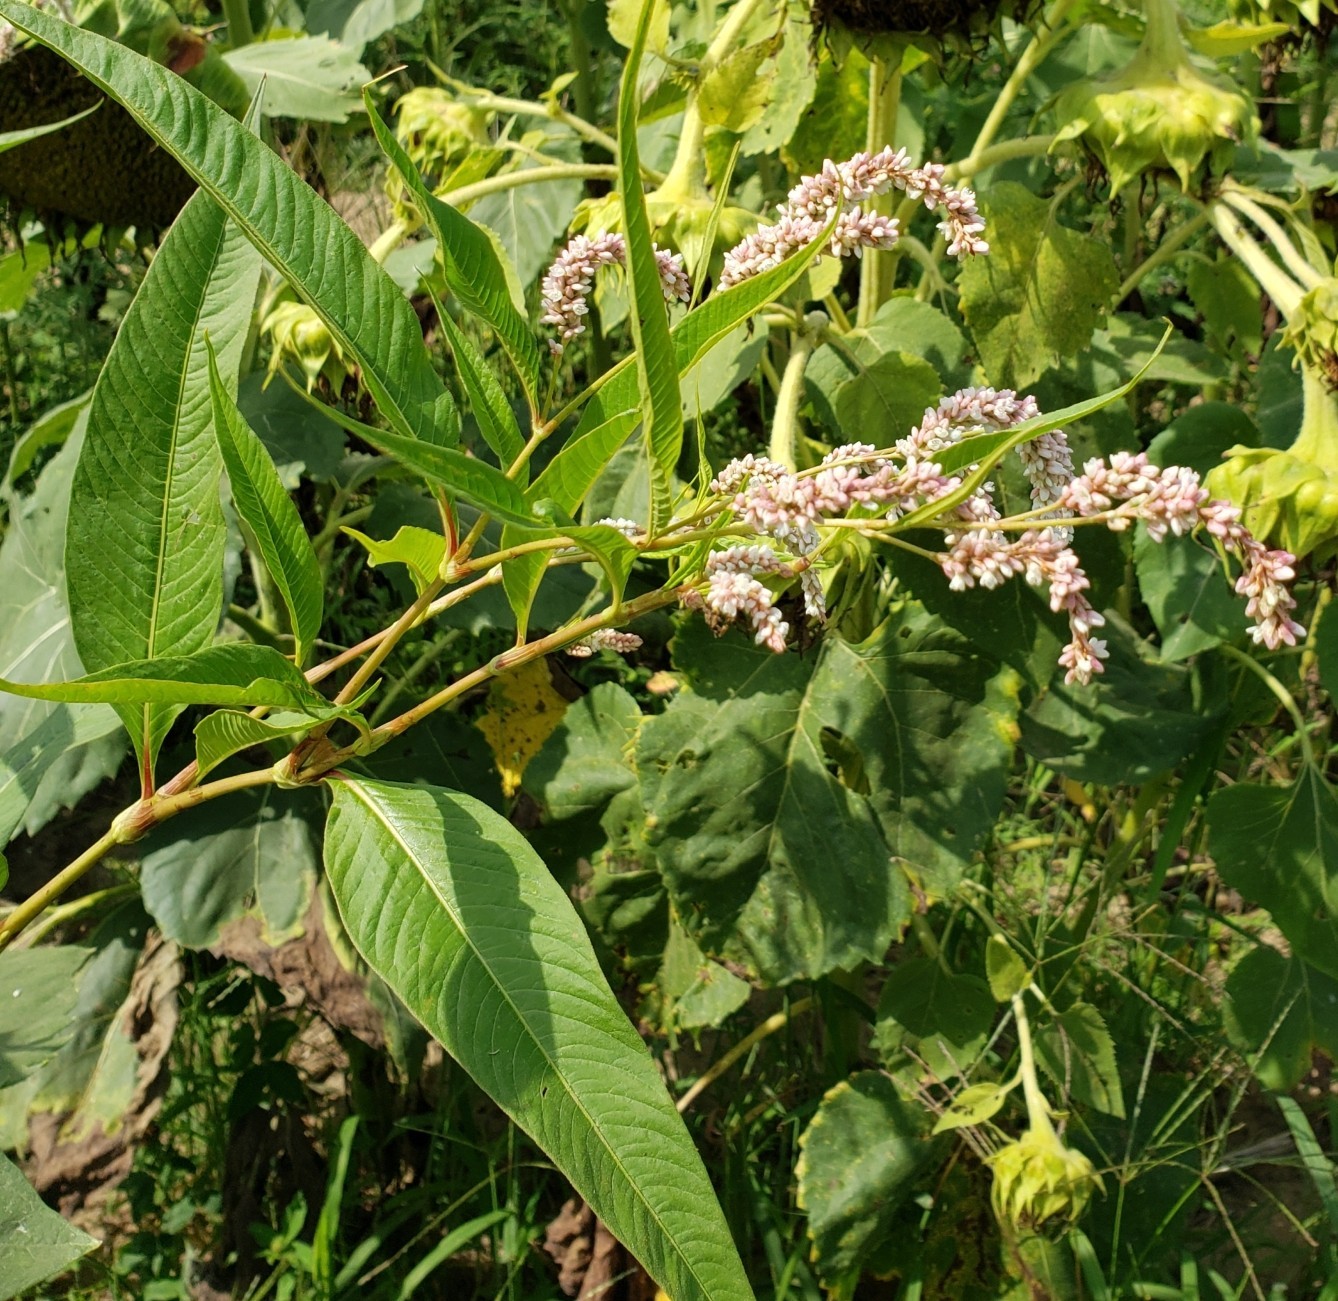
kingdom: Plantae
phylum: Tracheophyta
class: Magnoliopsida
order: Caryophyllales
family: Polygonaceae
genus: Persicaria
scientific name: Persicaria lapathifolia
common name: Curlytop knotweed
